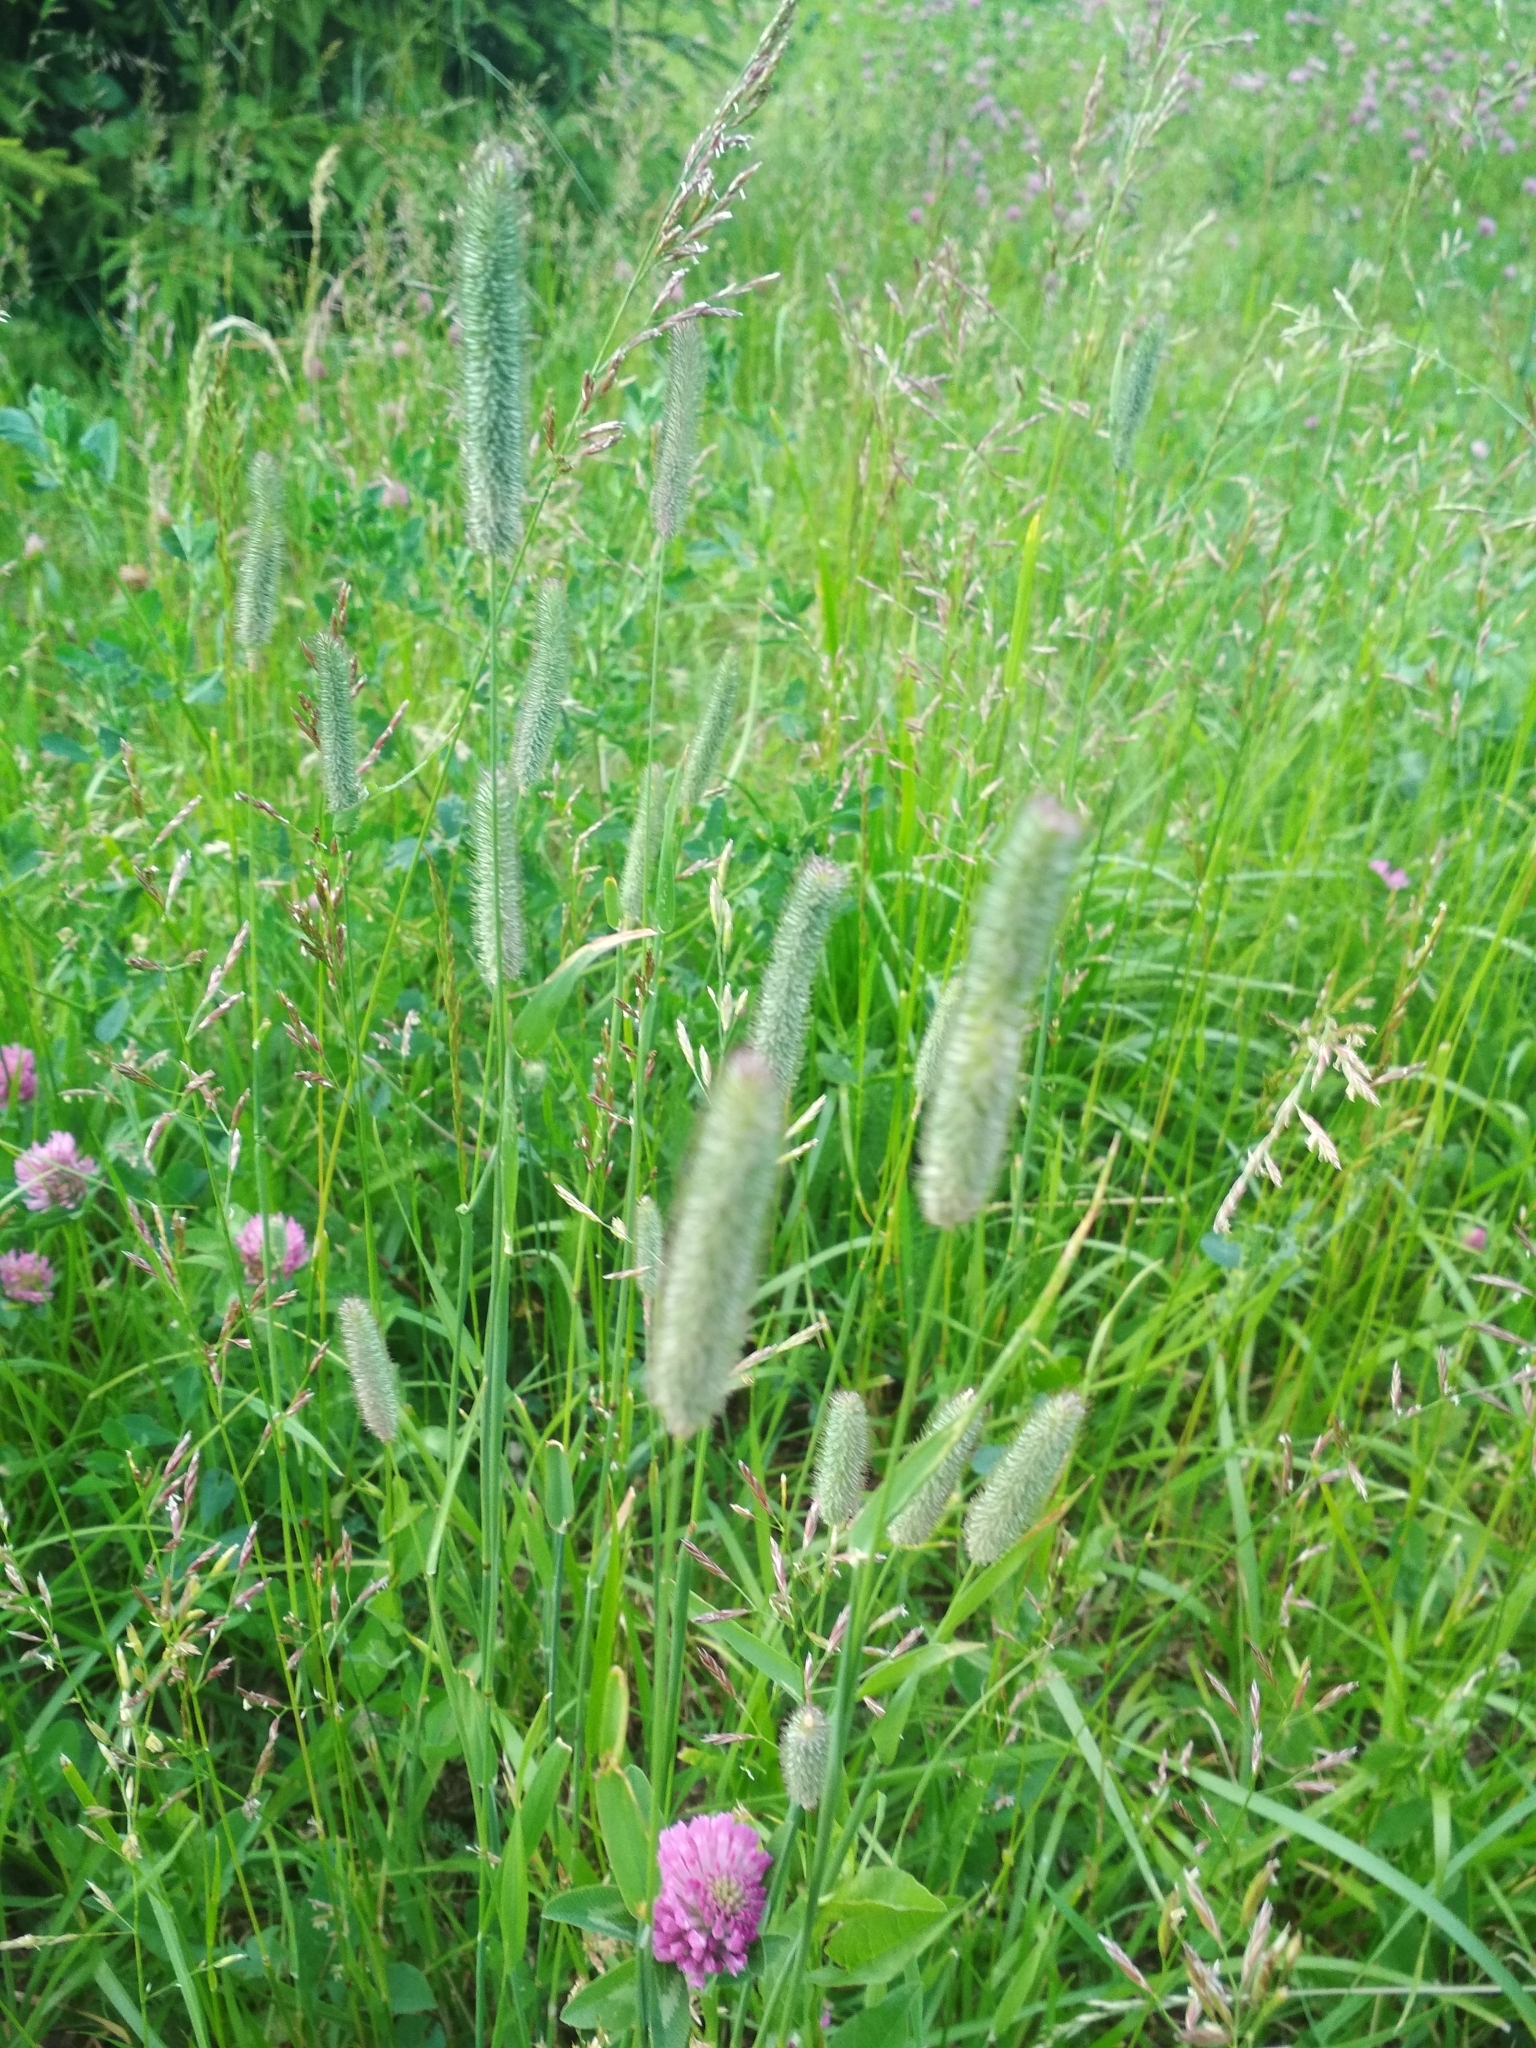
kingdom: Plantae
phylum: Tracheophyta
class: Liliopsida
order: Poales
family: Poaceae
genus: Phleum
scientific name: Phleum pratense
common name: Timothy grass
